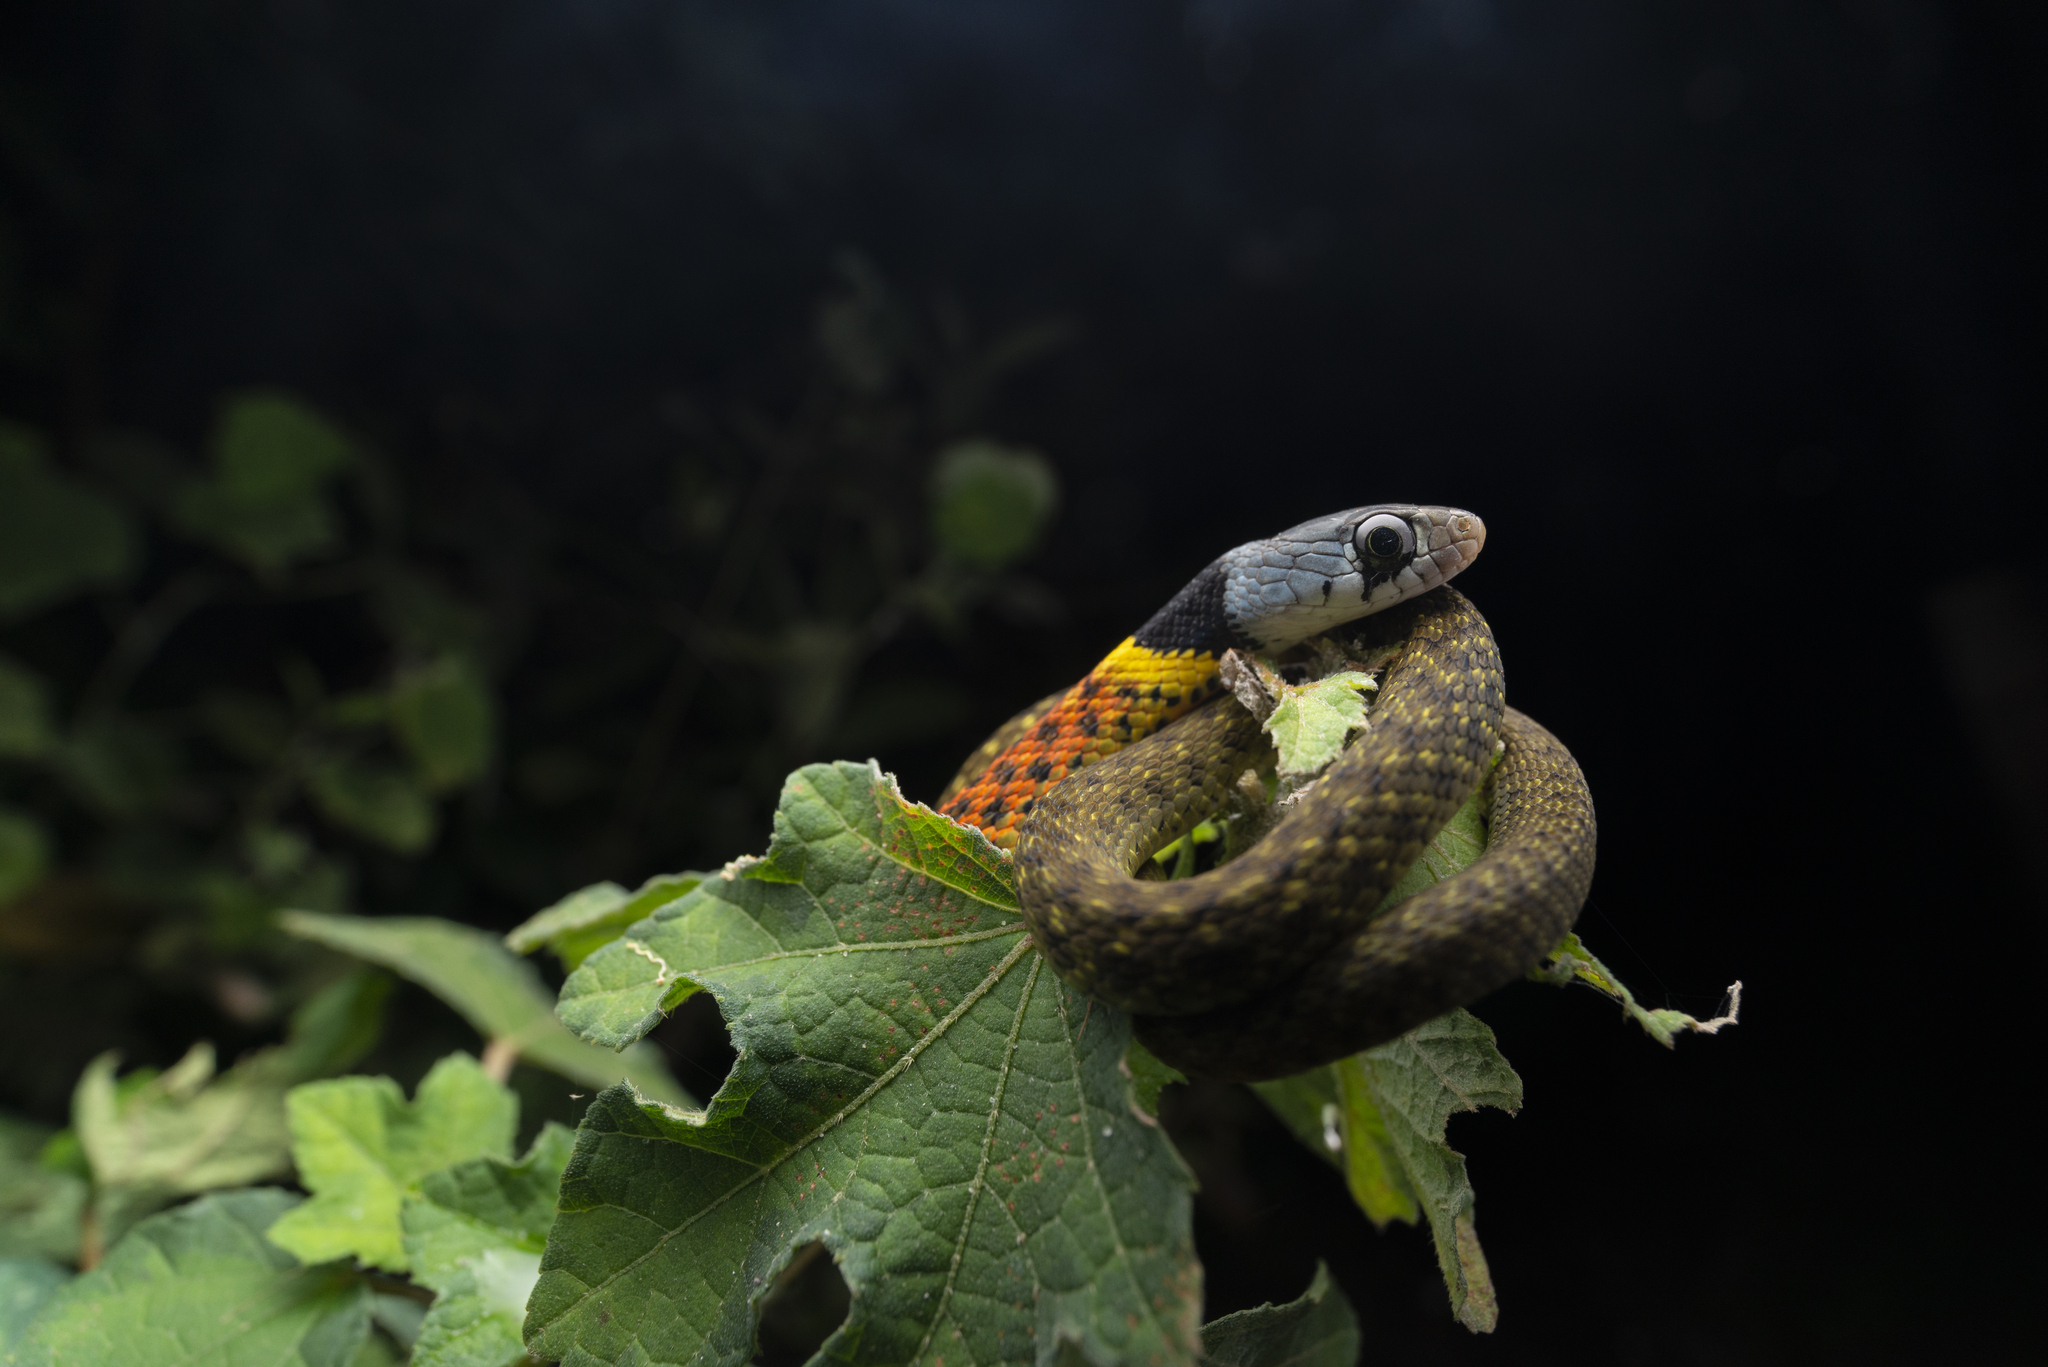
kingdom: Animalia
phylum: Chordata
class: Squamata
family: Colubridae
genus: Rhabdophis
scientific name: Rhabdophis helleri
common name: Heller’s red-necked keelback
